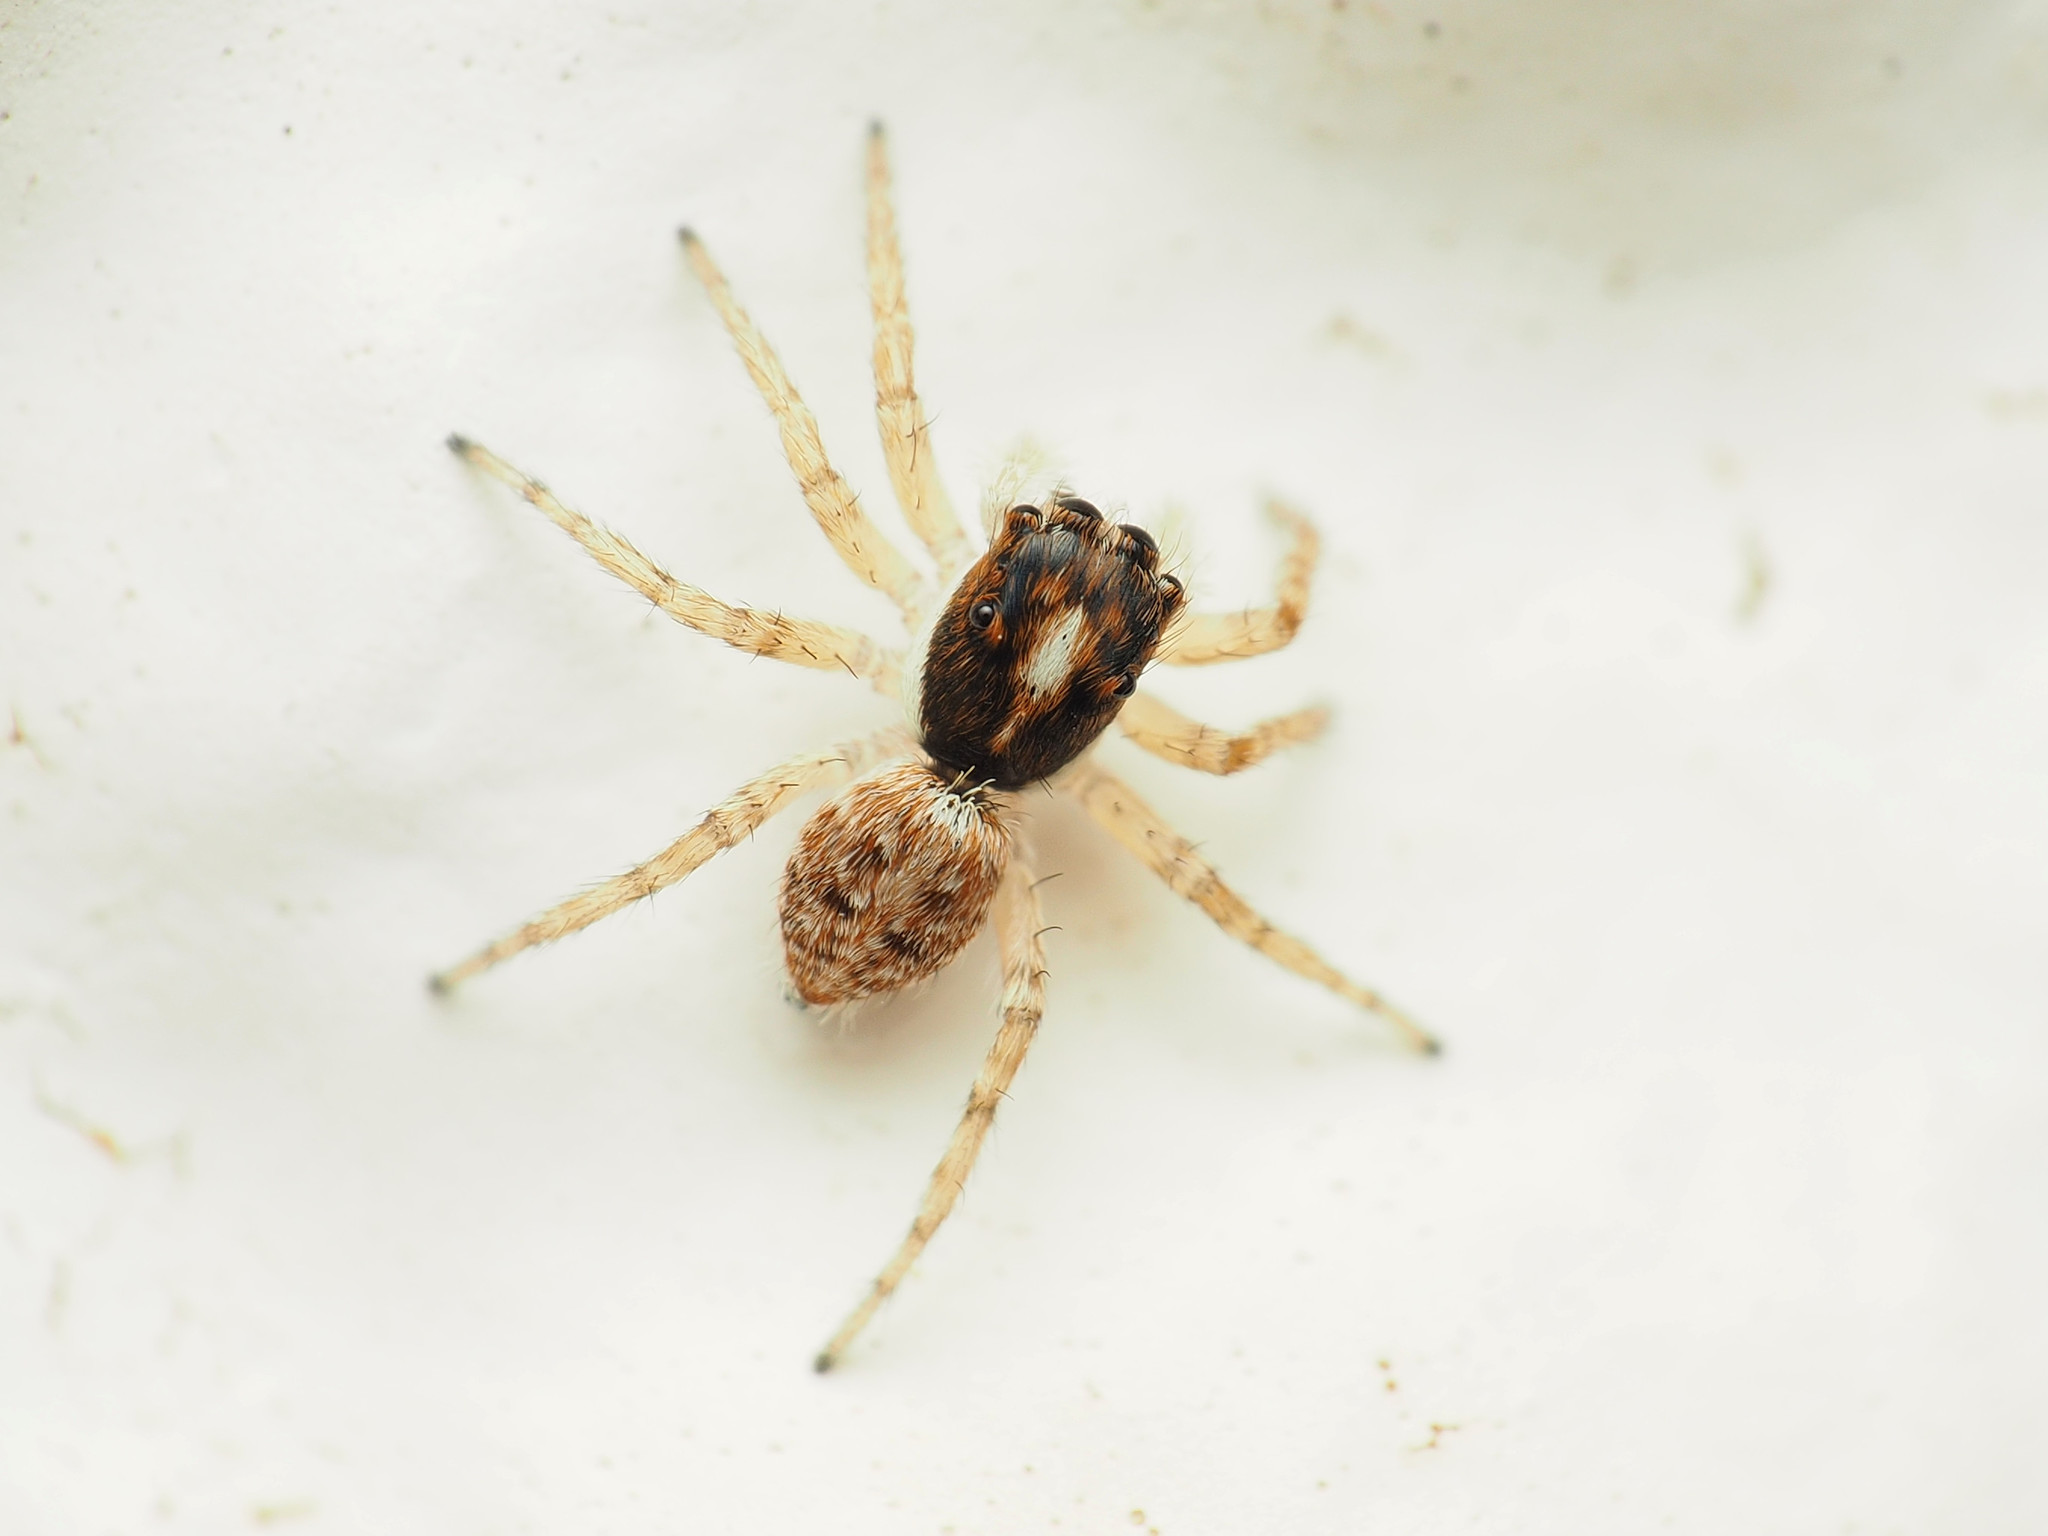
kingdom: Animalia
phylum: Arthropoda
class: Arachnida
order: Araneae
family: Salticidae
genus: Menemerus
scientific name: Menemerus semilimbatus
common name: Jumping spider
